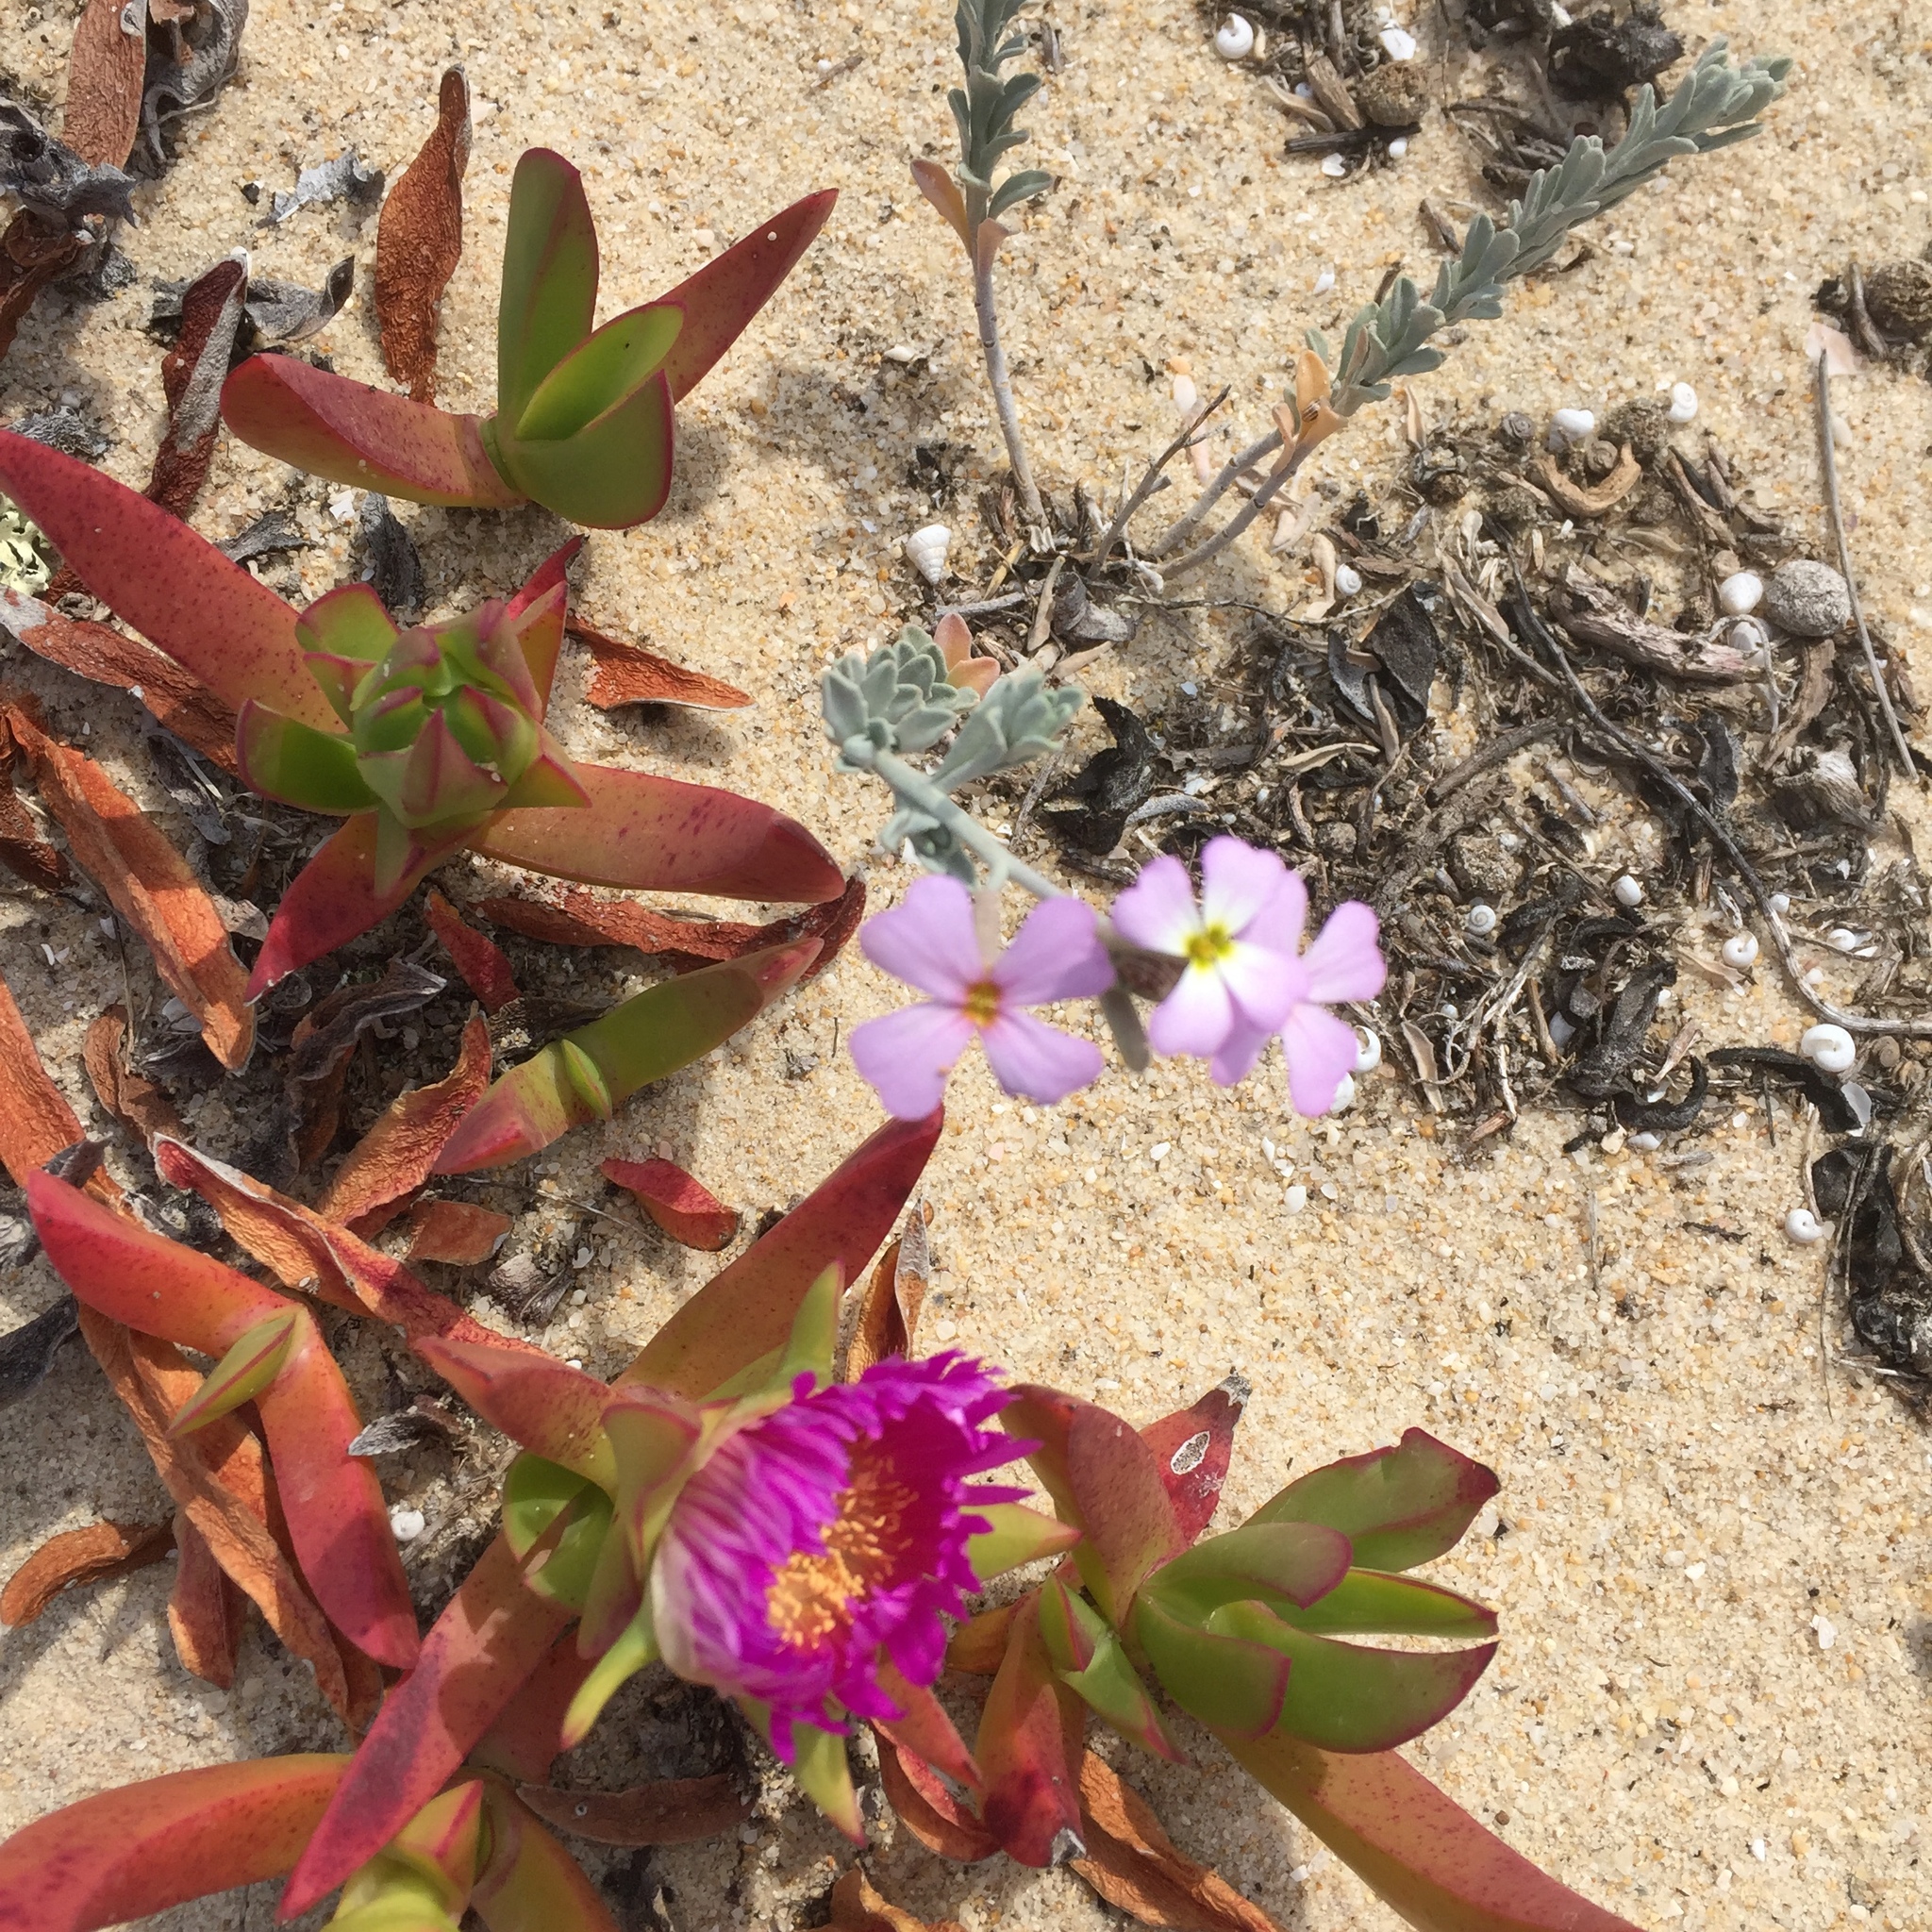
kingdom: Plantae
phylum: Tracheophyta
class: Magnoliopsida
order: Brassicales
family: Brassicaceae
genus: Marcuskochia
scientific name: Marcuskochia littorea
